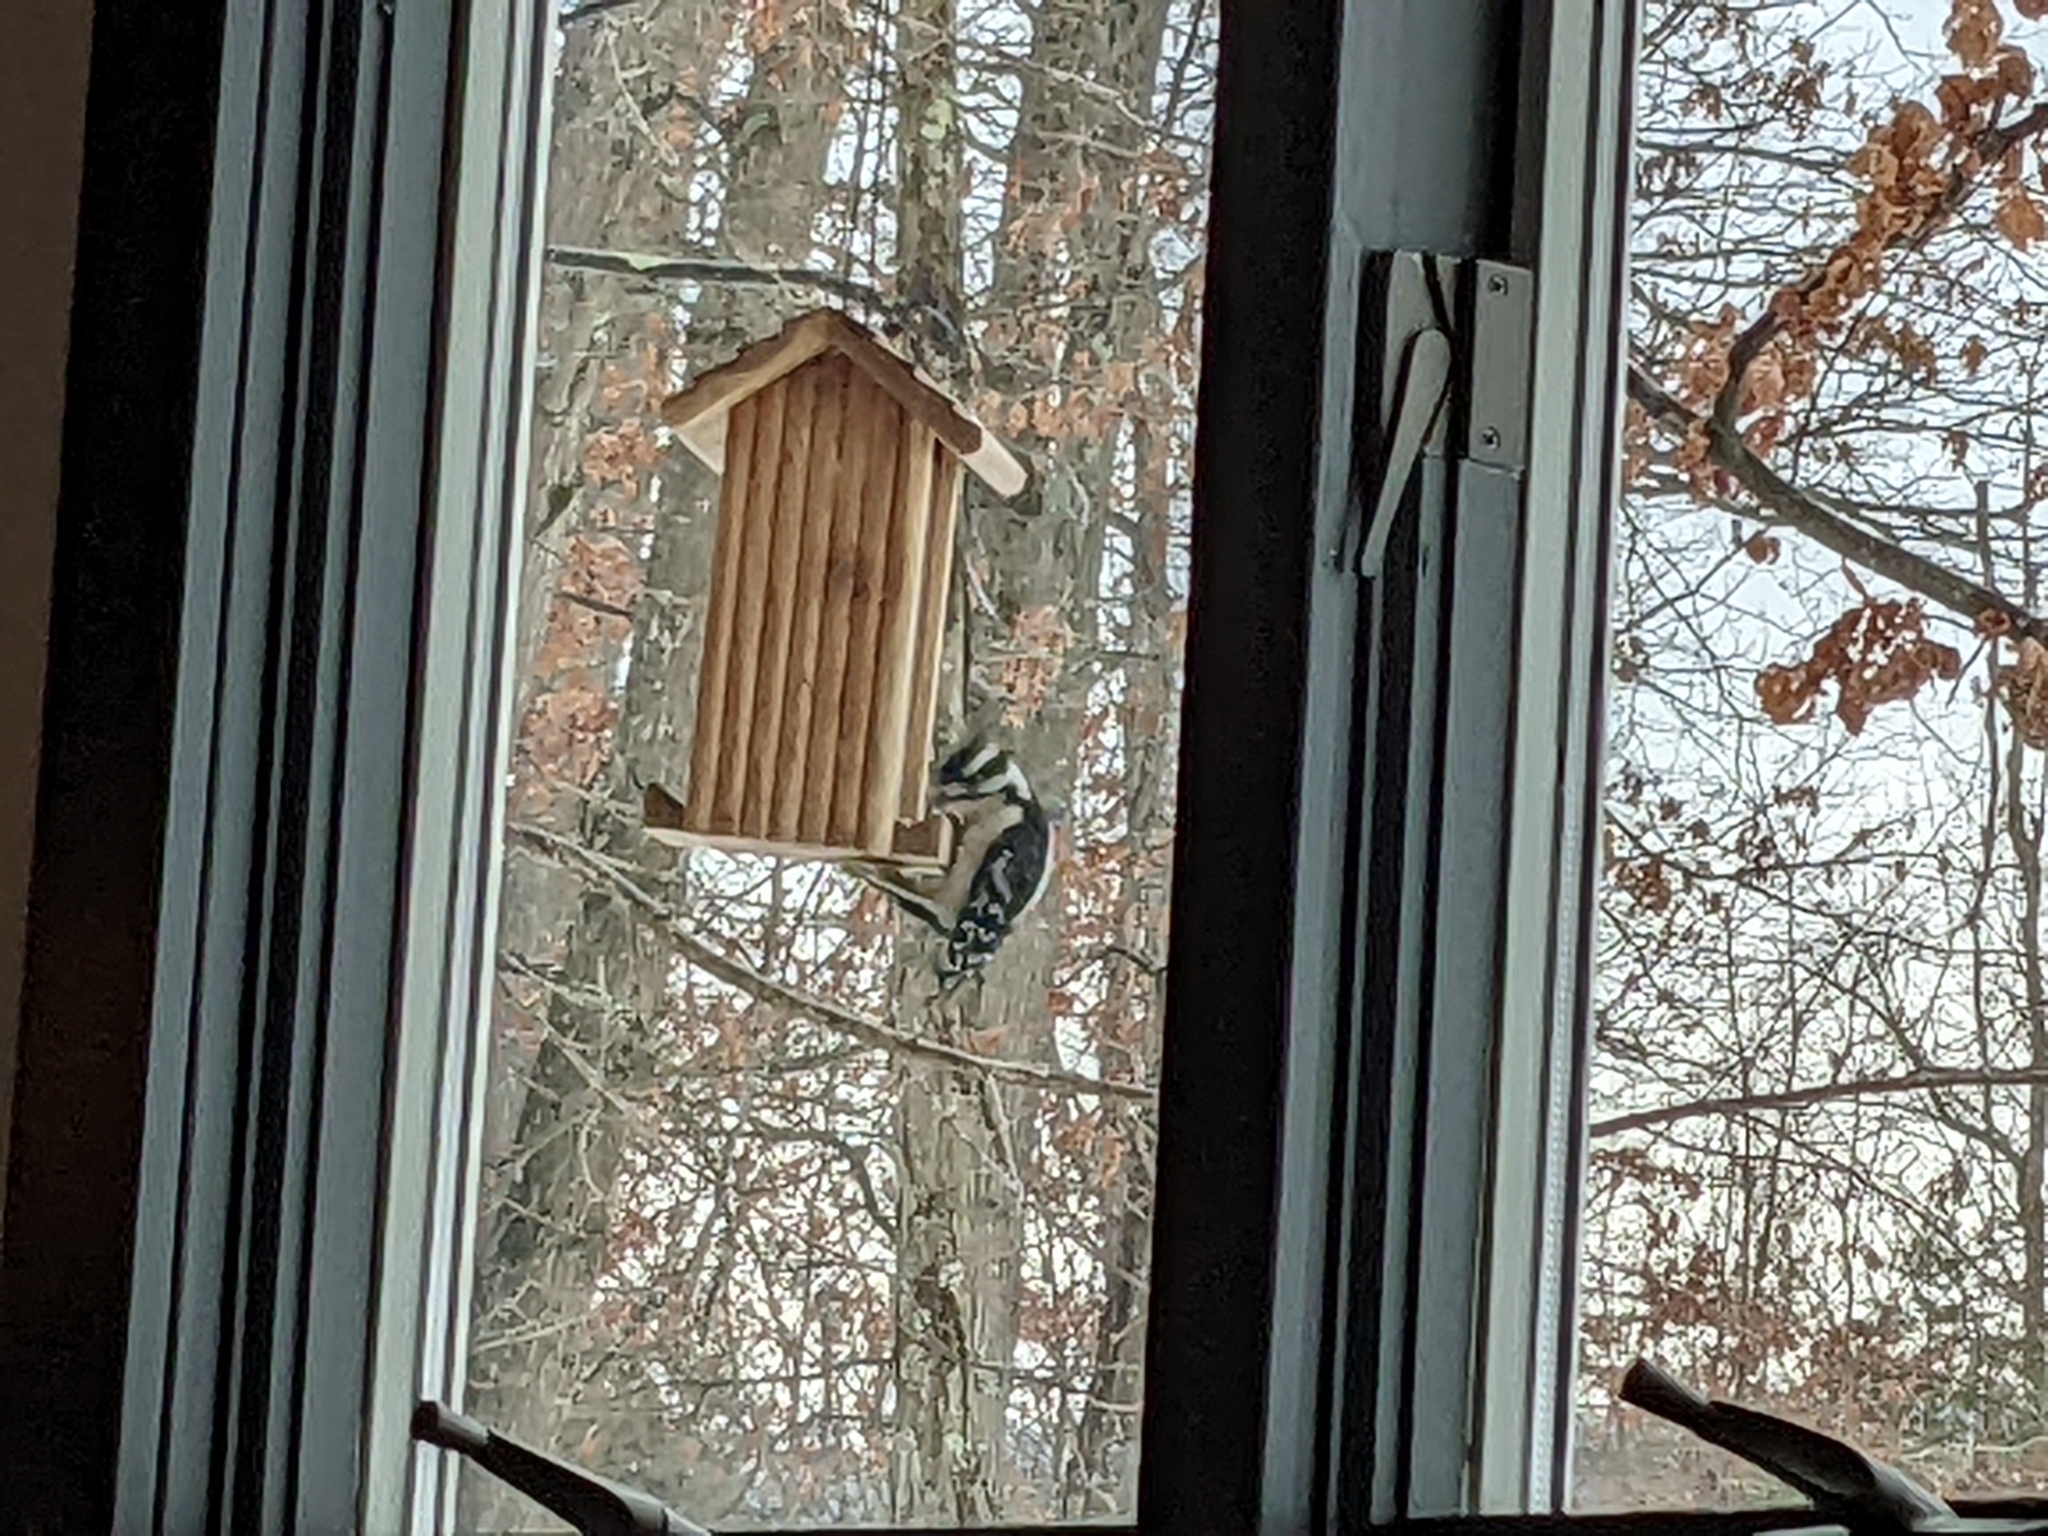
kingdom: Animalia
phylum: Chordata
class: Aves
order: Piciformes
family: Picidae
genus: Leuconotopicus
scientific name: Leuconotopicus villosus
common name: Hairy woodpecker
